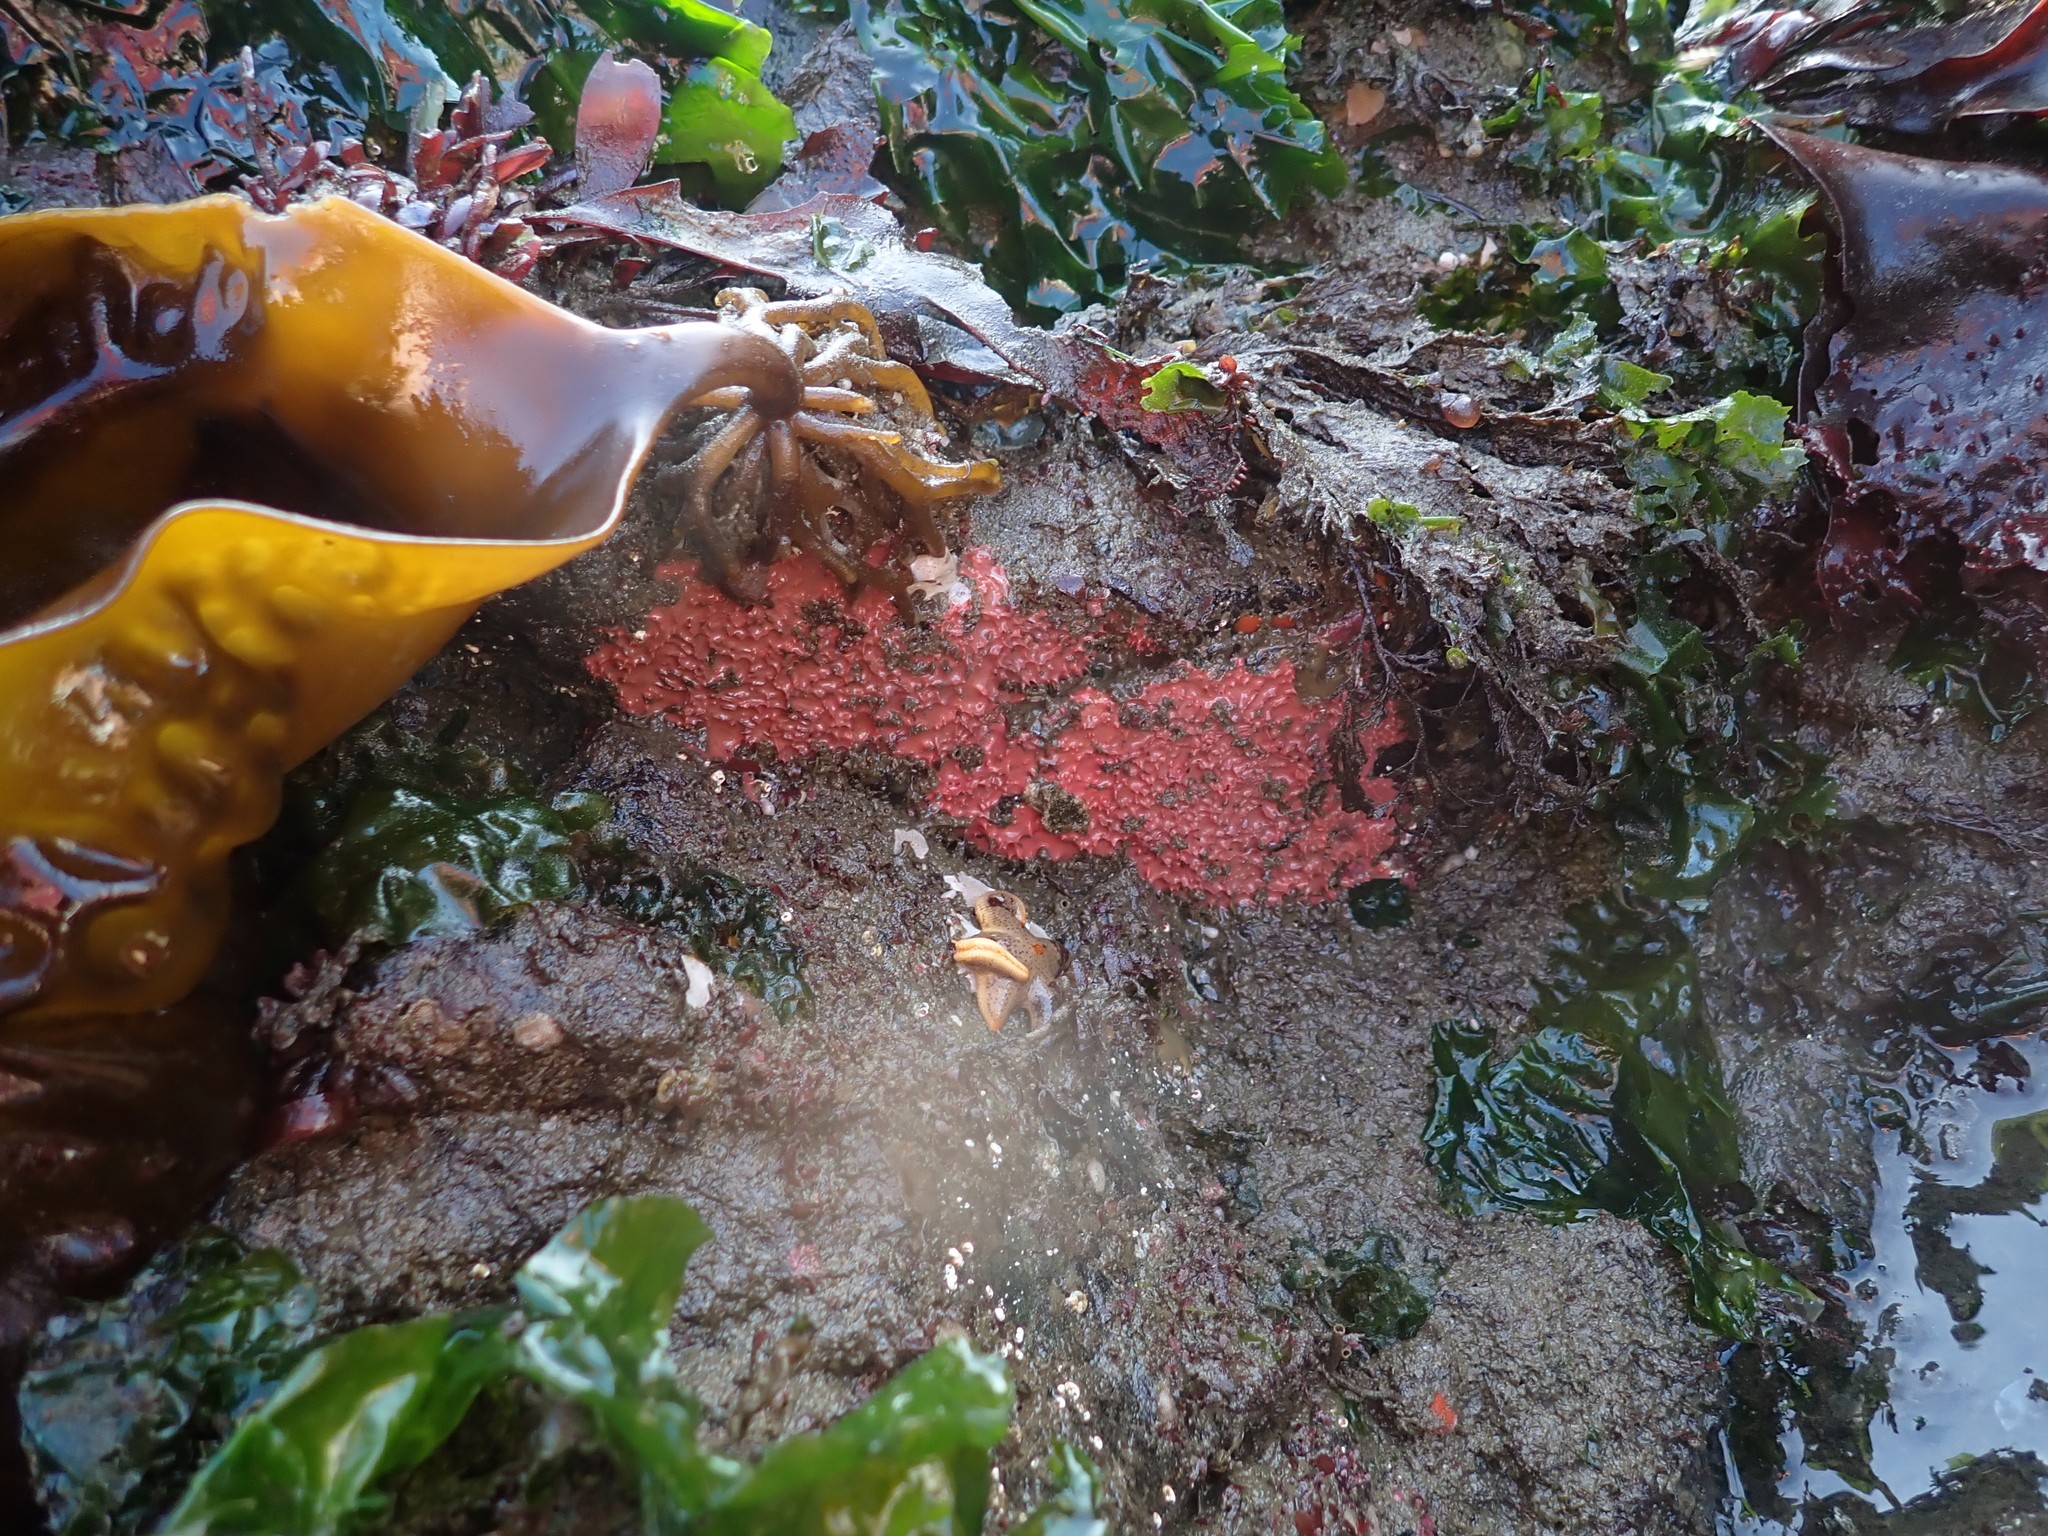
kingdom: Animalia
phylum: Porifera
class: Demospongiae
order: Dendroceratida
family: Darwinellidae
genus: Aplysilla
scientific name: Aplysilla glacialis
